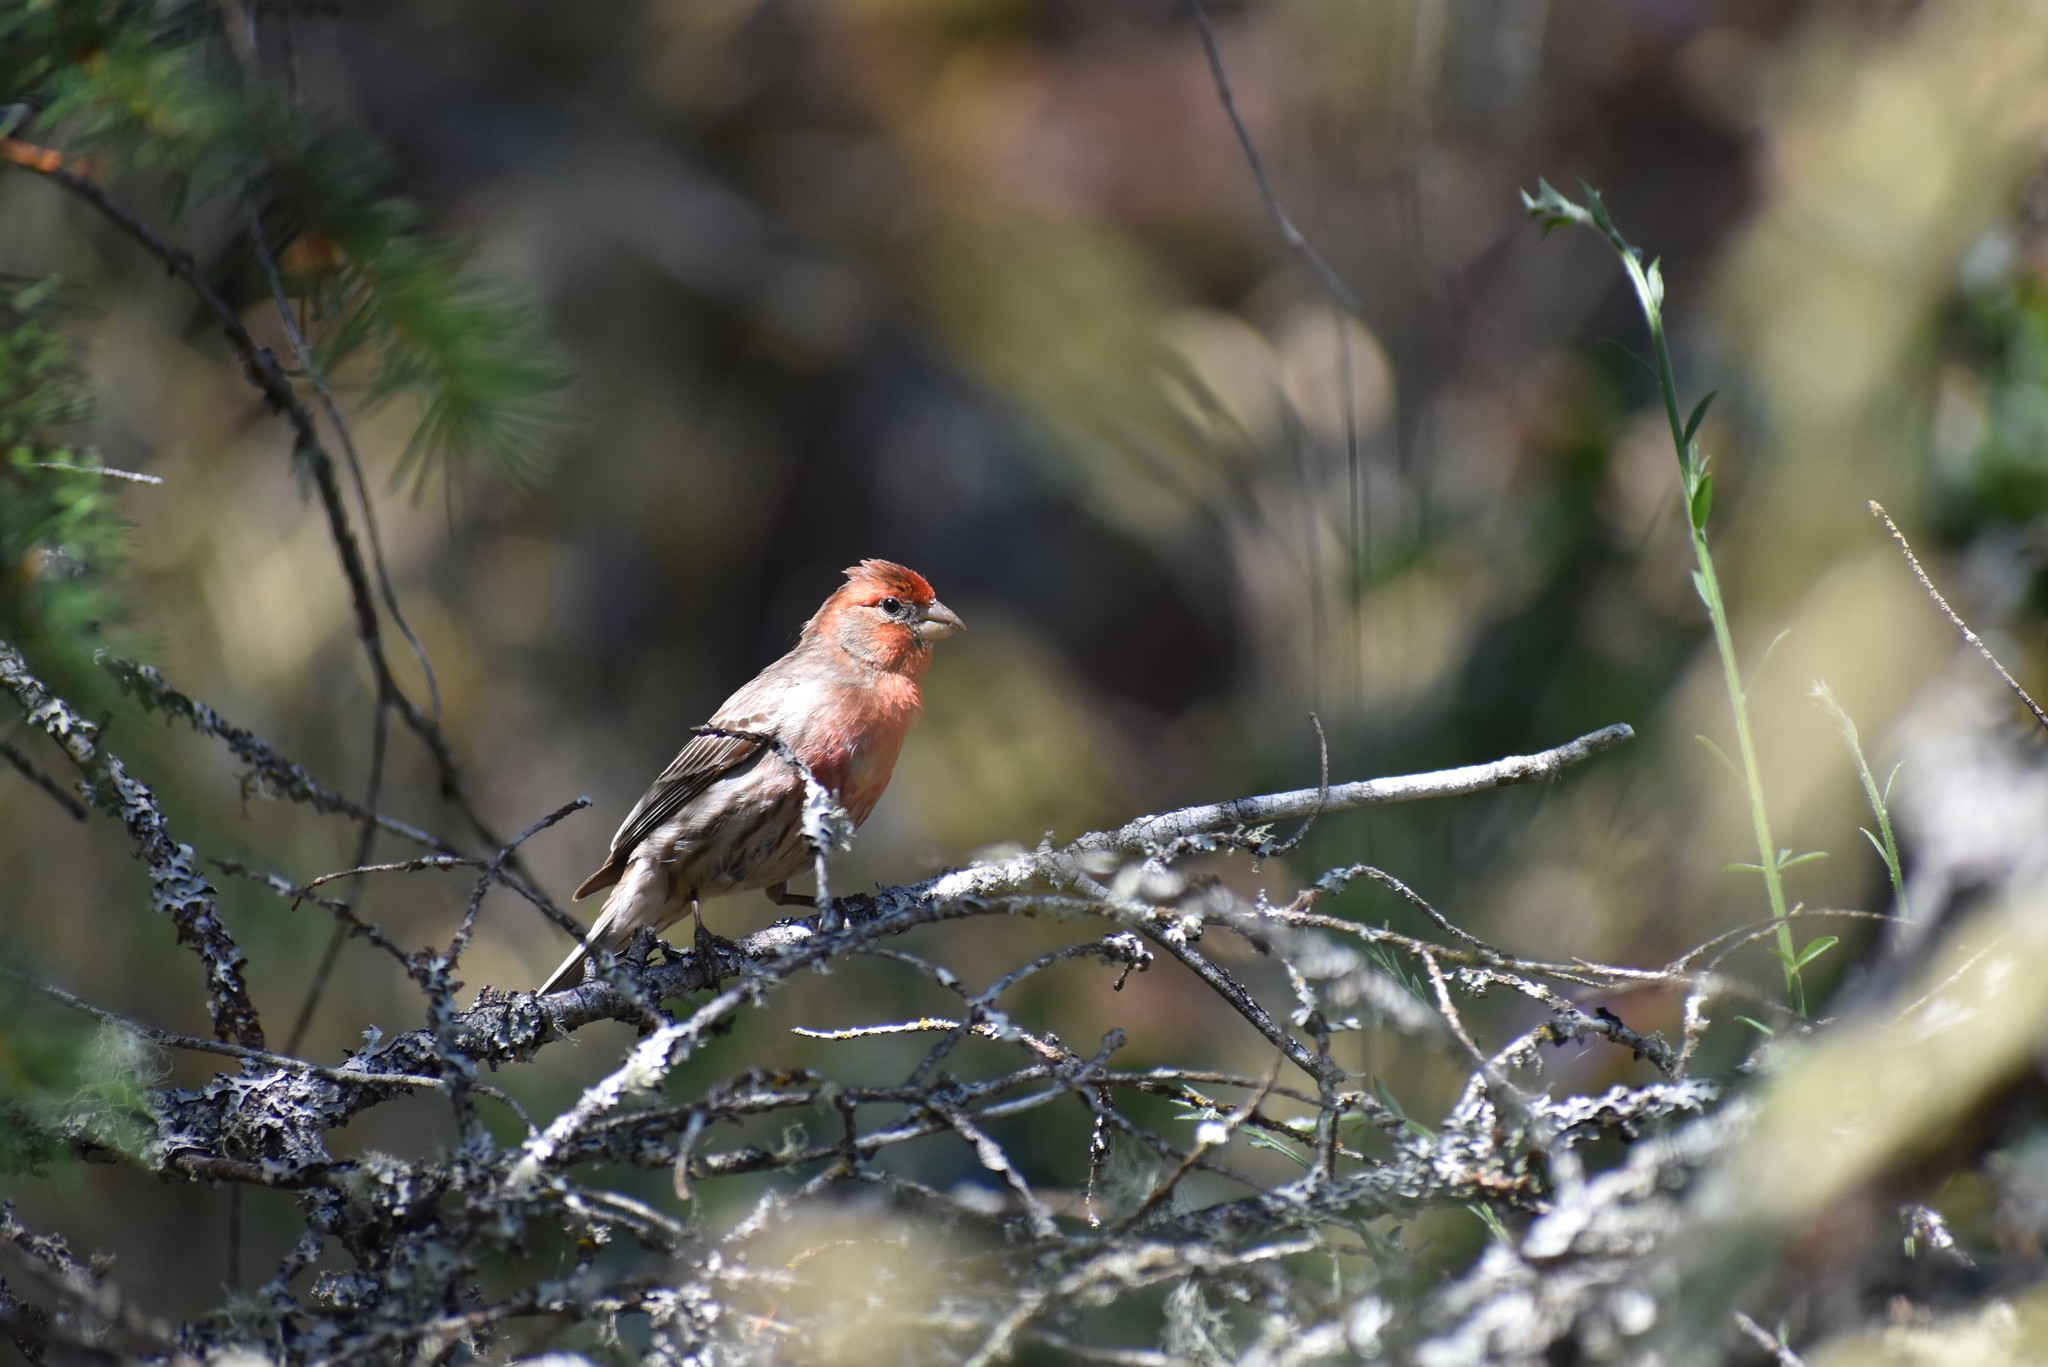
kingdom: Animalia
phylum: Chordata
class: Aves
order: Passeriformes
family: Fringillidae
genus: Haemorhous
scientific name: Haemorhous mexicanus
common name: House finch
